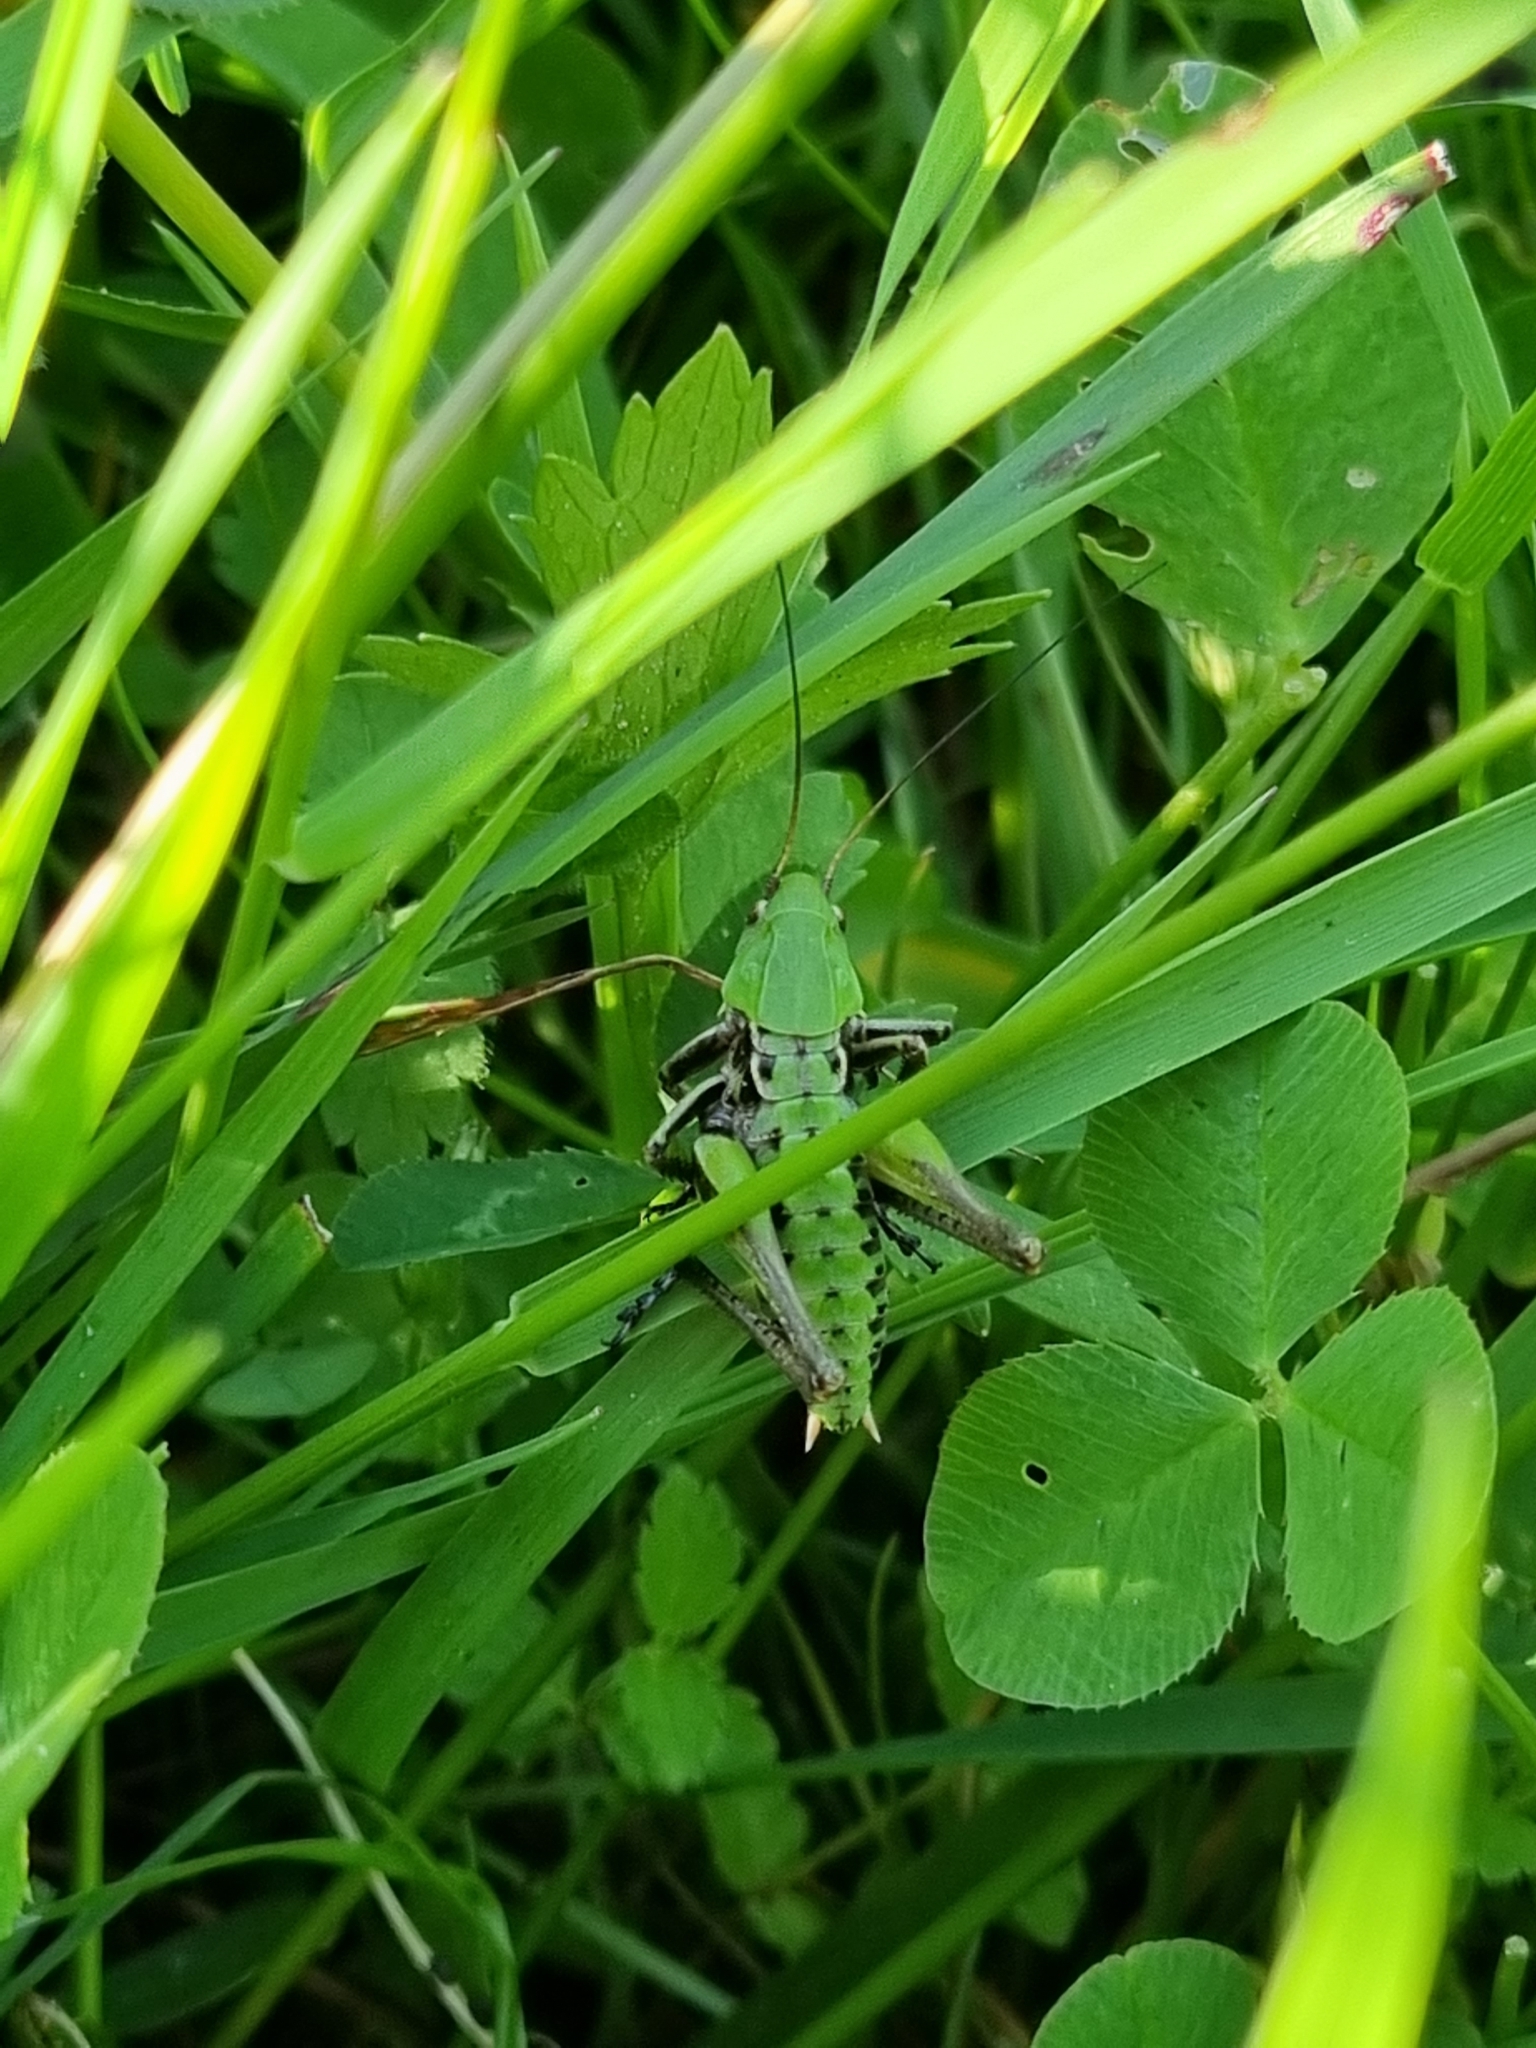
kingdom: Animalia
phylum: Arthropoda
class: Insecta
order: Orthoptera
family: Tettigoniidae
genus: Decticus
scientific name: Decticus verrucivorus
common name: Wart-biter
